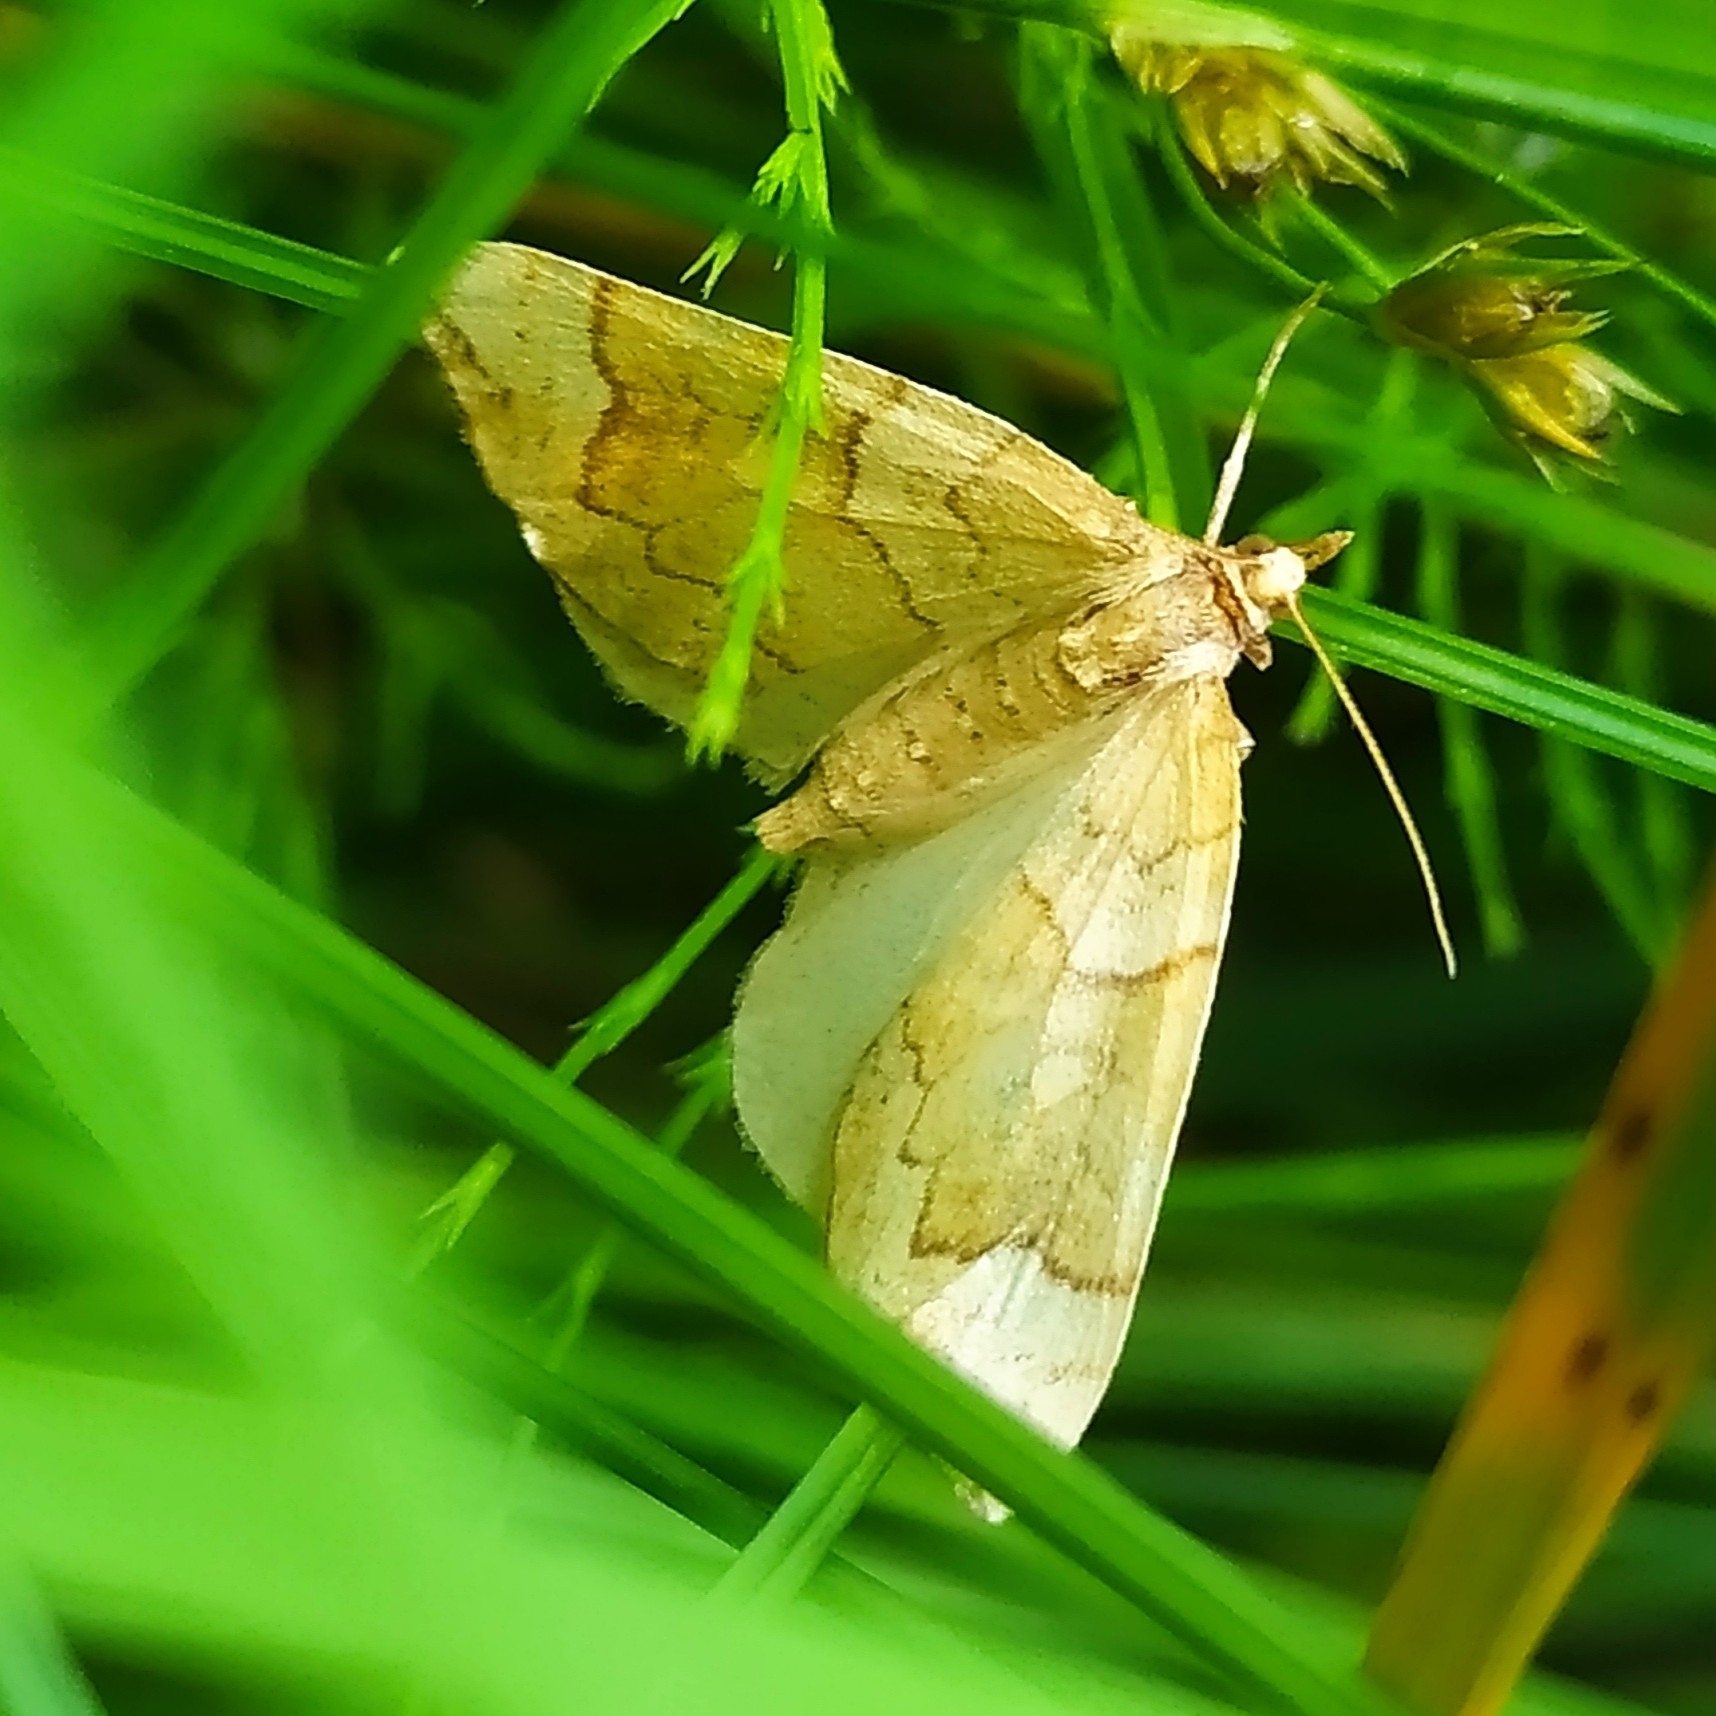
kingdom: Animalia
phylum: Arthropoda
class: Insecta
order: Lepidoptera
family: Geometridae
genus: Eulithis
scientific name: Eulithis populata
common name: Northern spinach
